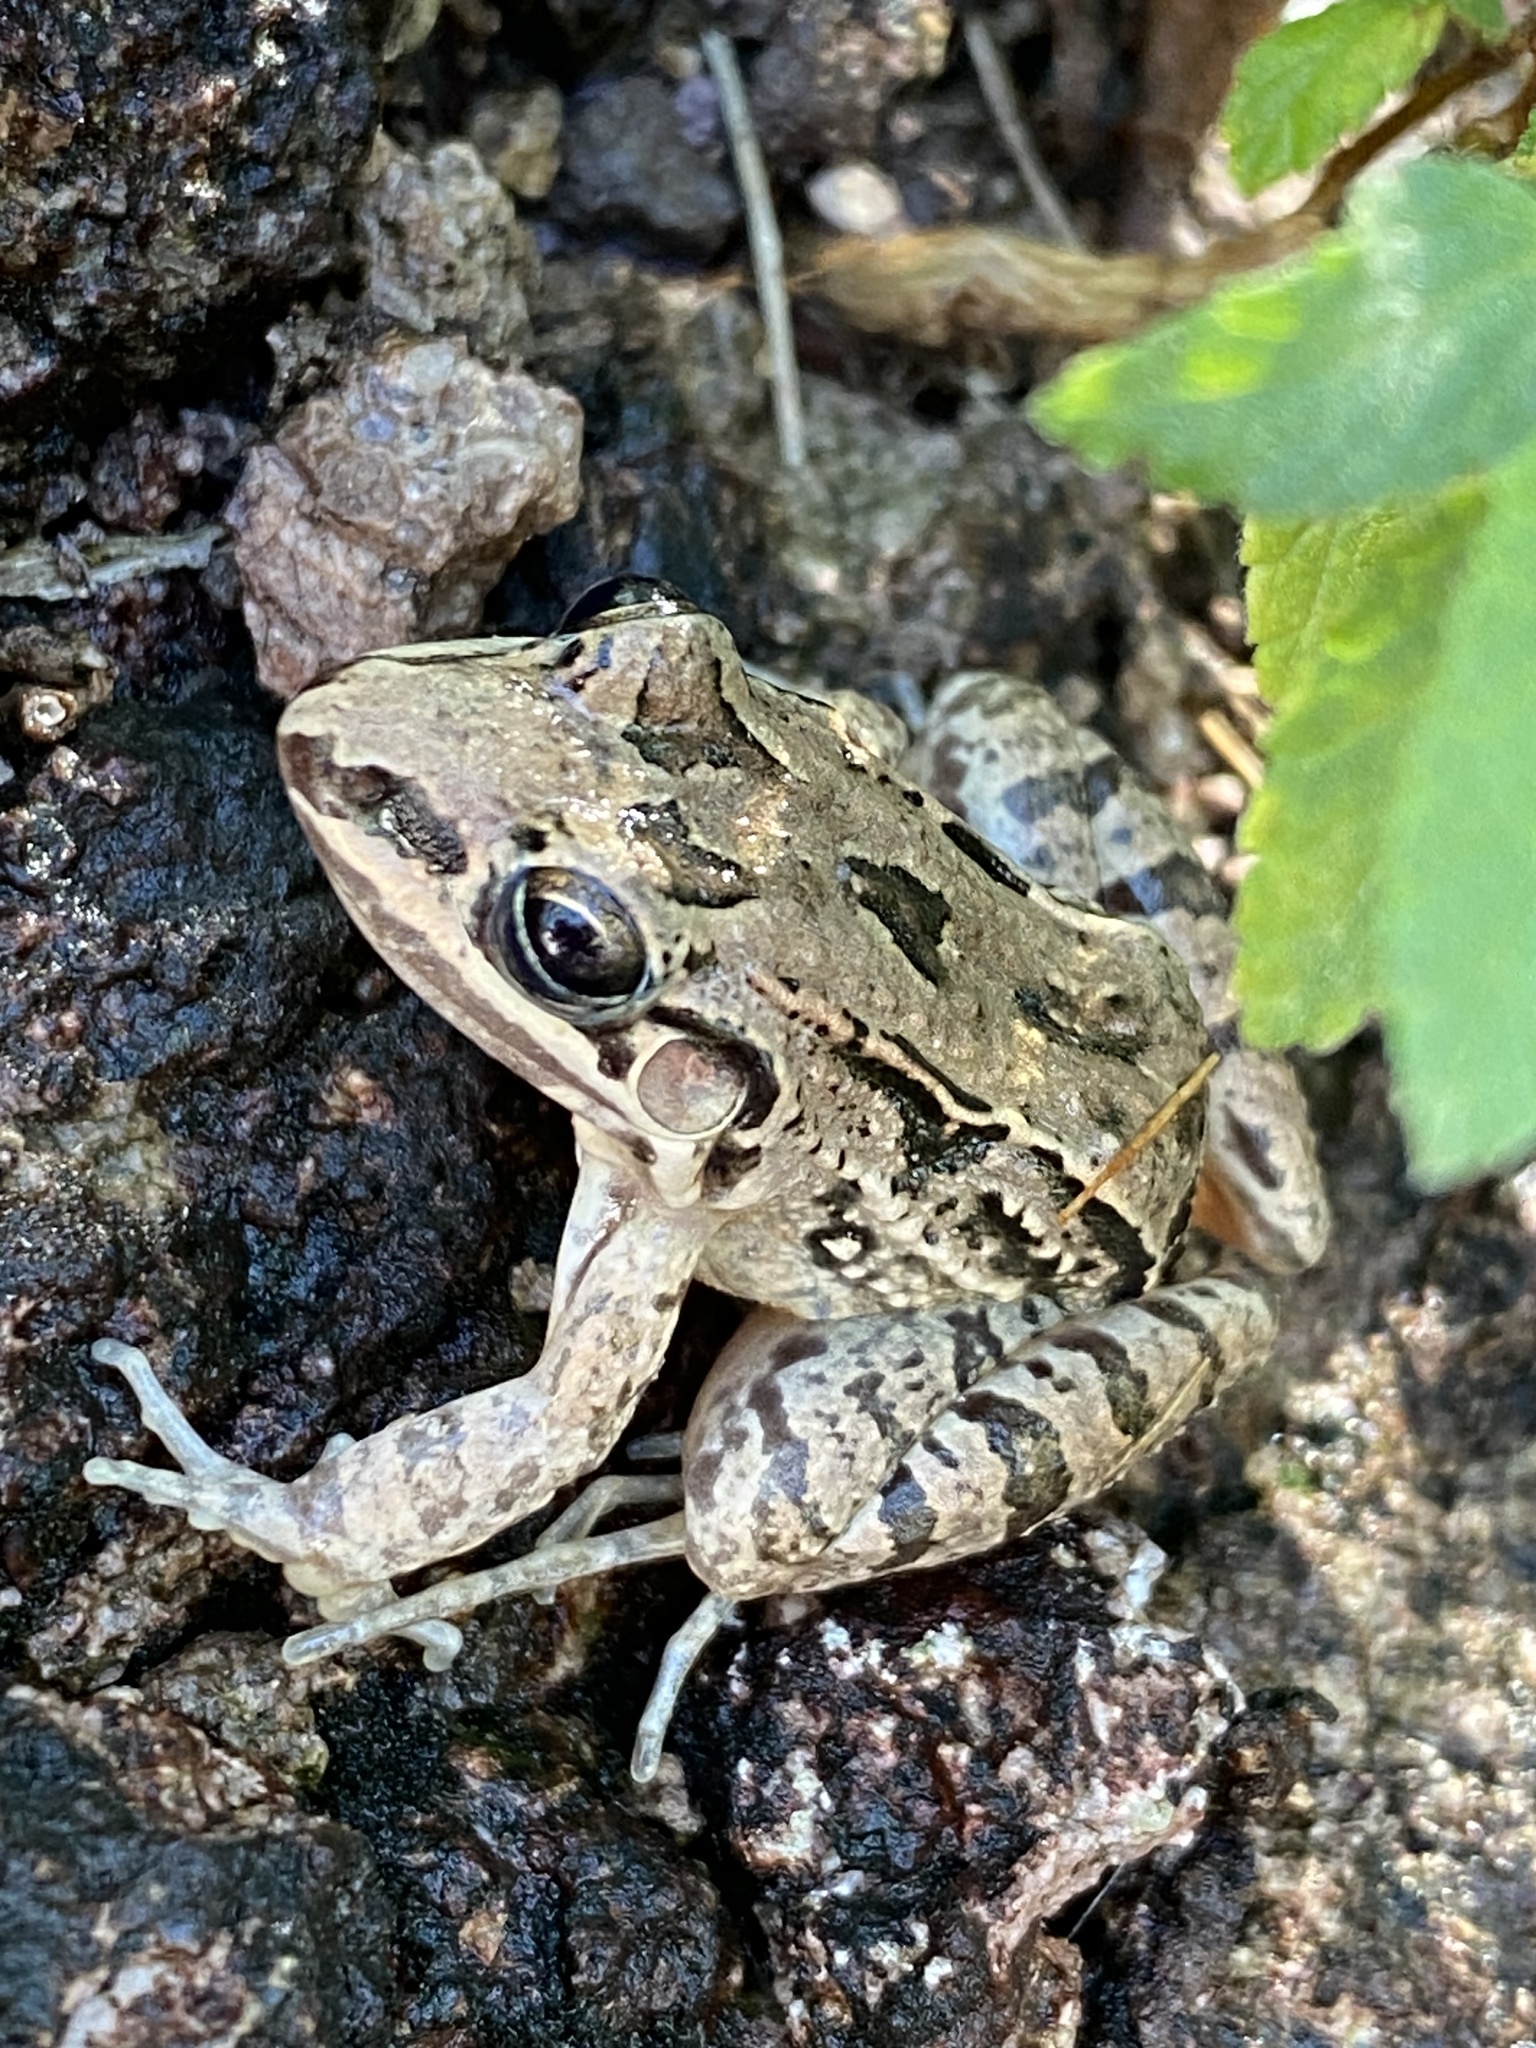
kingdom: Animalia
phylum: Chordata
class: Amphibia
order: Anura
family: Leptodactylidae
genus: Leptodactylus
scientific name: Leptodactylus fragilis
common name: Mexican white-lipped frog
